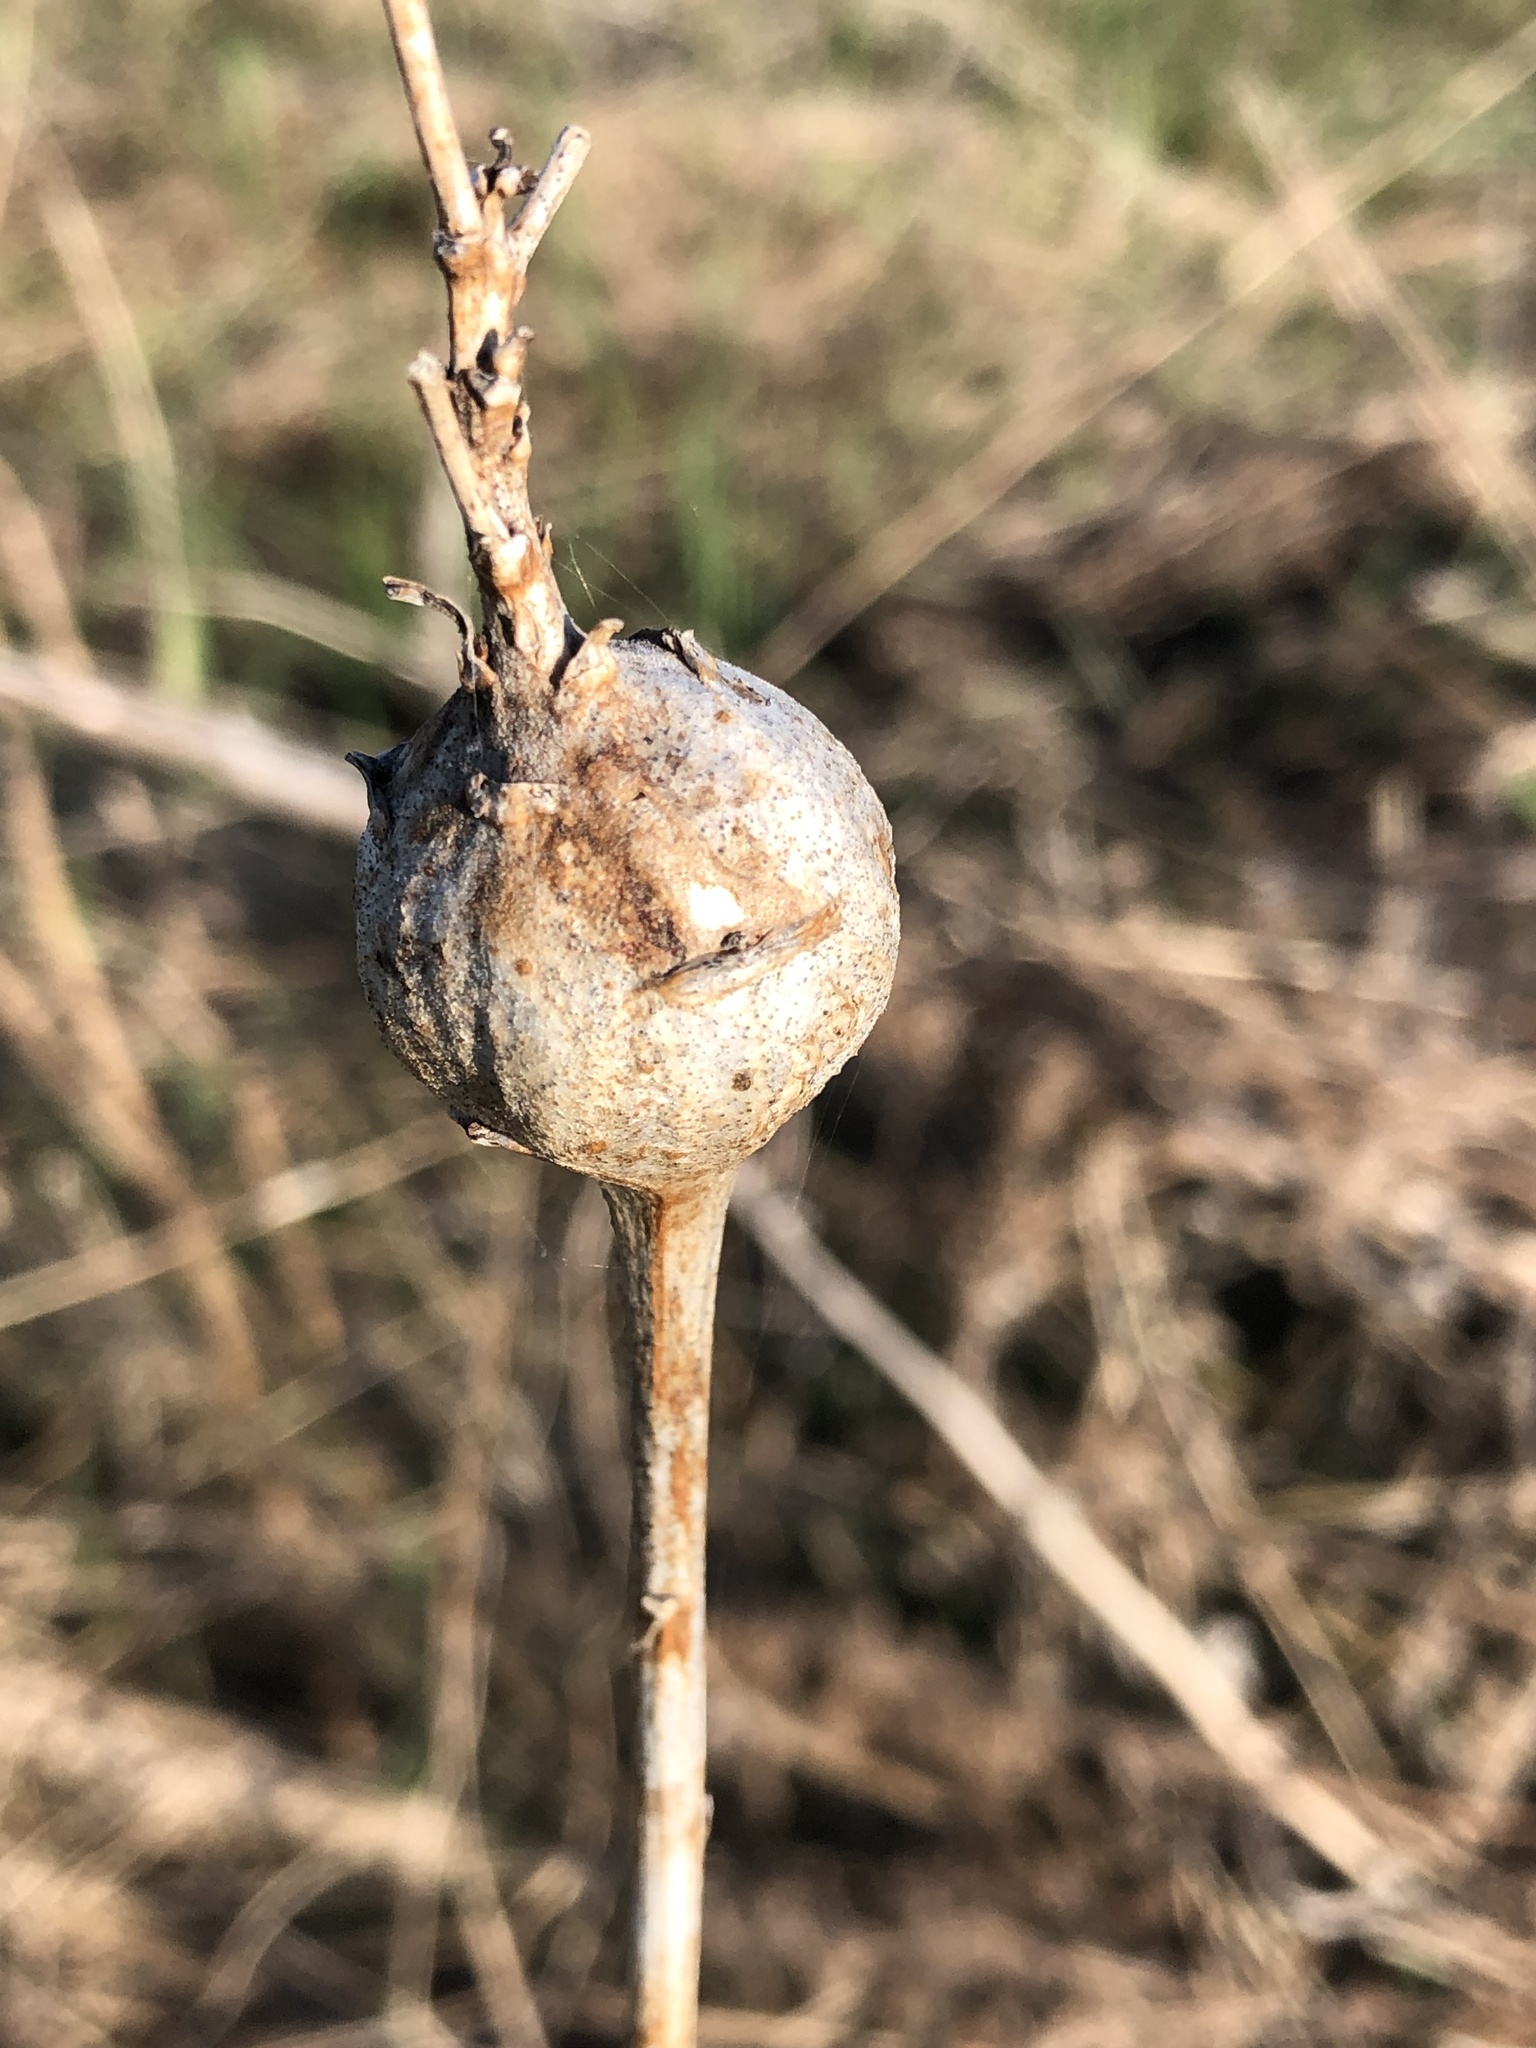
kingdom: Animalia
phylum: Arthropoda
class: Insecta
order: Diptera
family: Tephritidae
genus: Eurosta
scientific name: Eurosta solidaginis
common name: Goldenrod gall fly
